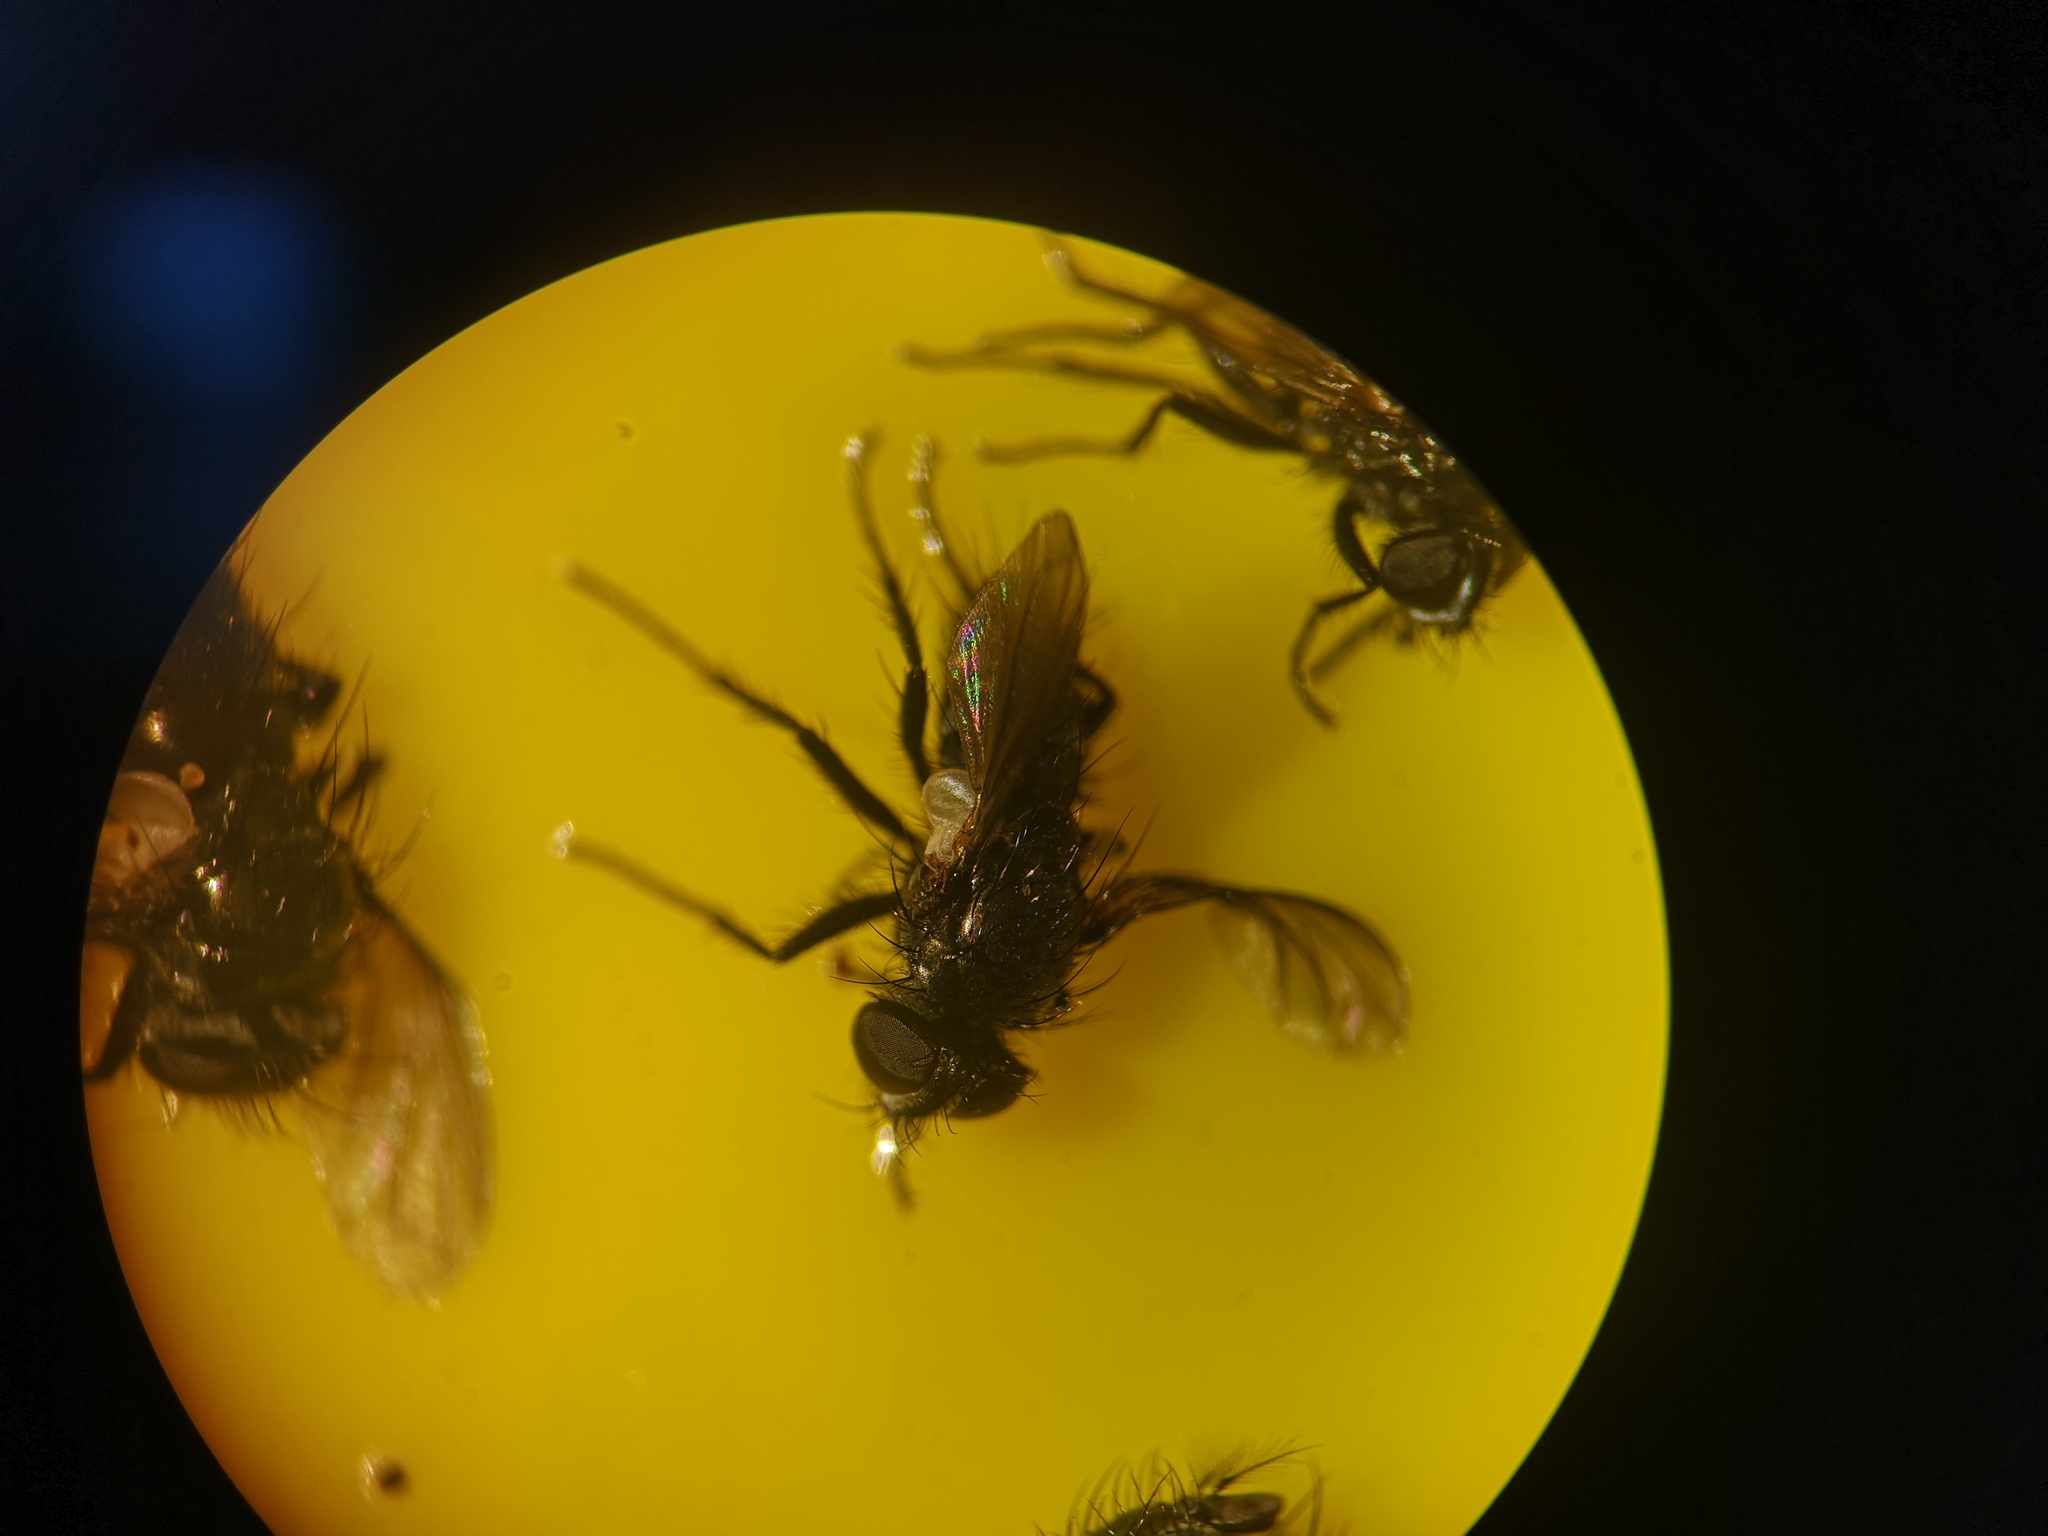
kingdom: Animalia
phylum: Arthropoda
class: Insecta
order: Diptera
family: Calliphoridae
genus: Rhinophora
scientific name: Rhinophora lepida
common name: Pouting woodlouse-fly
